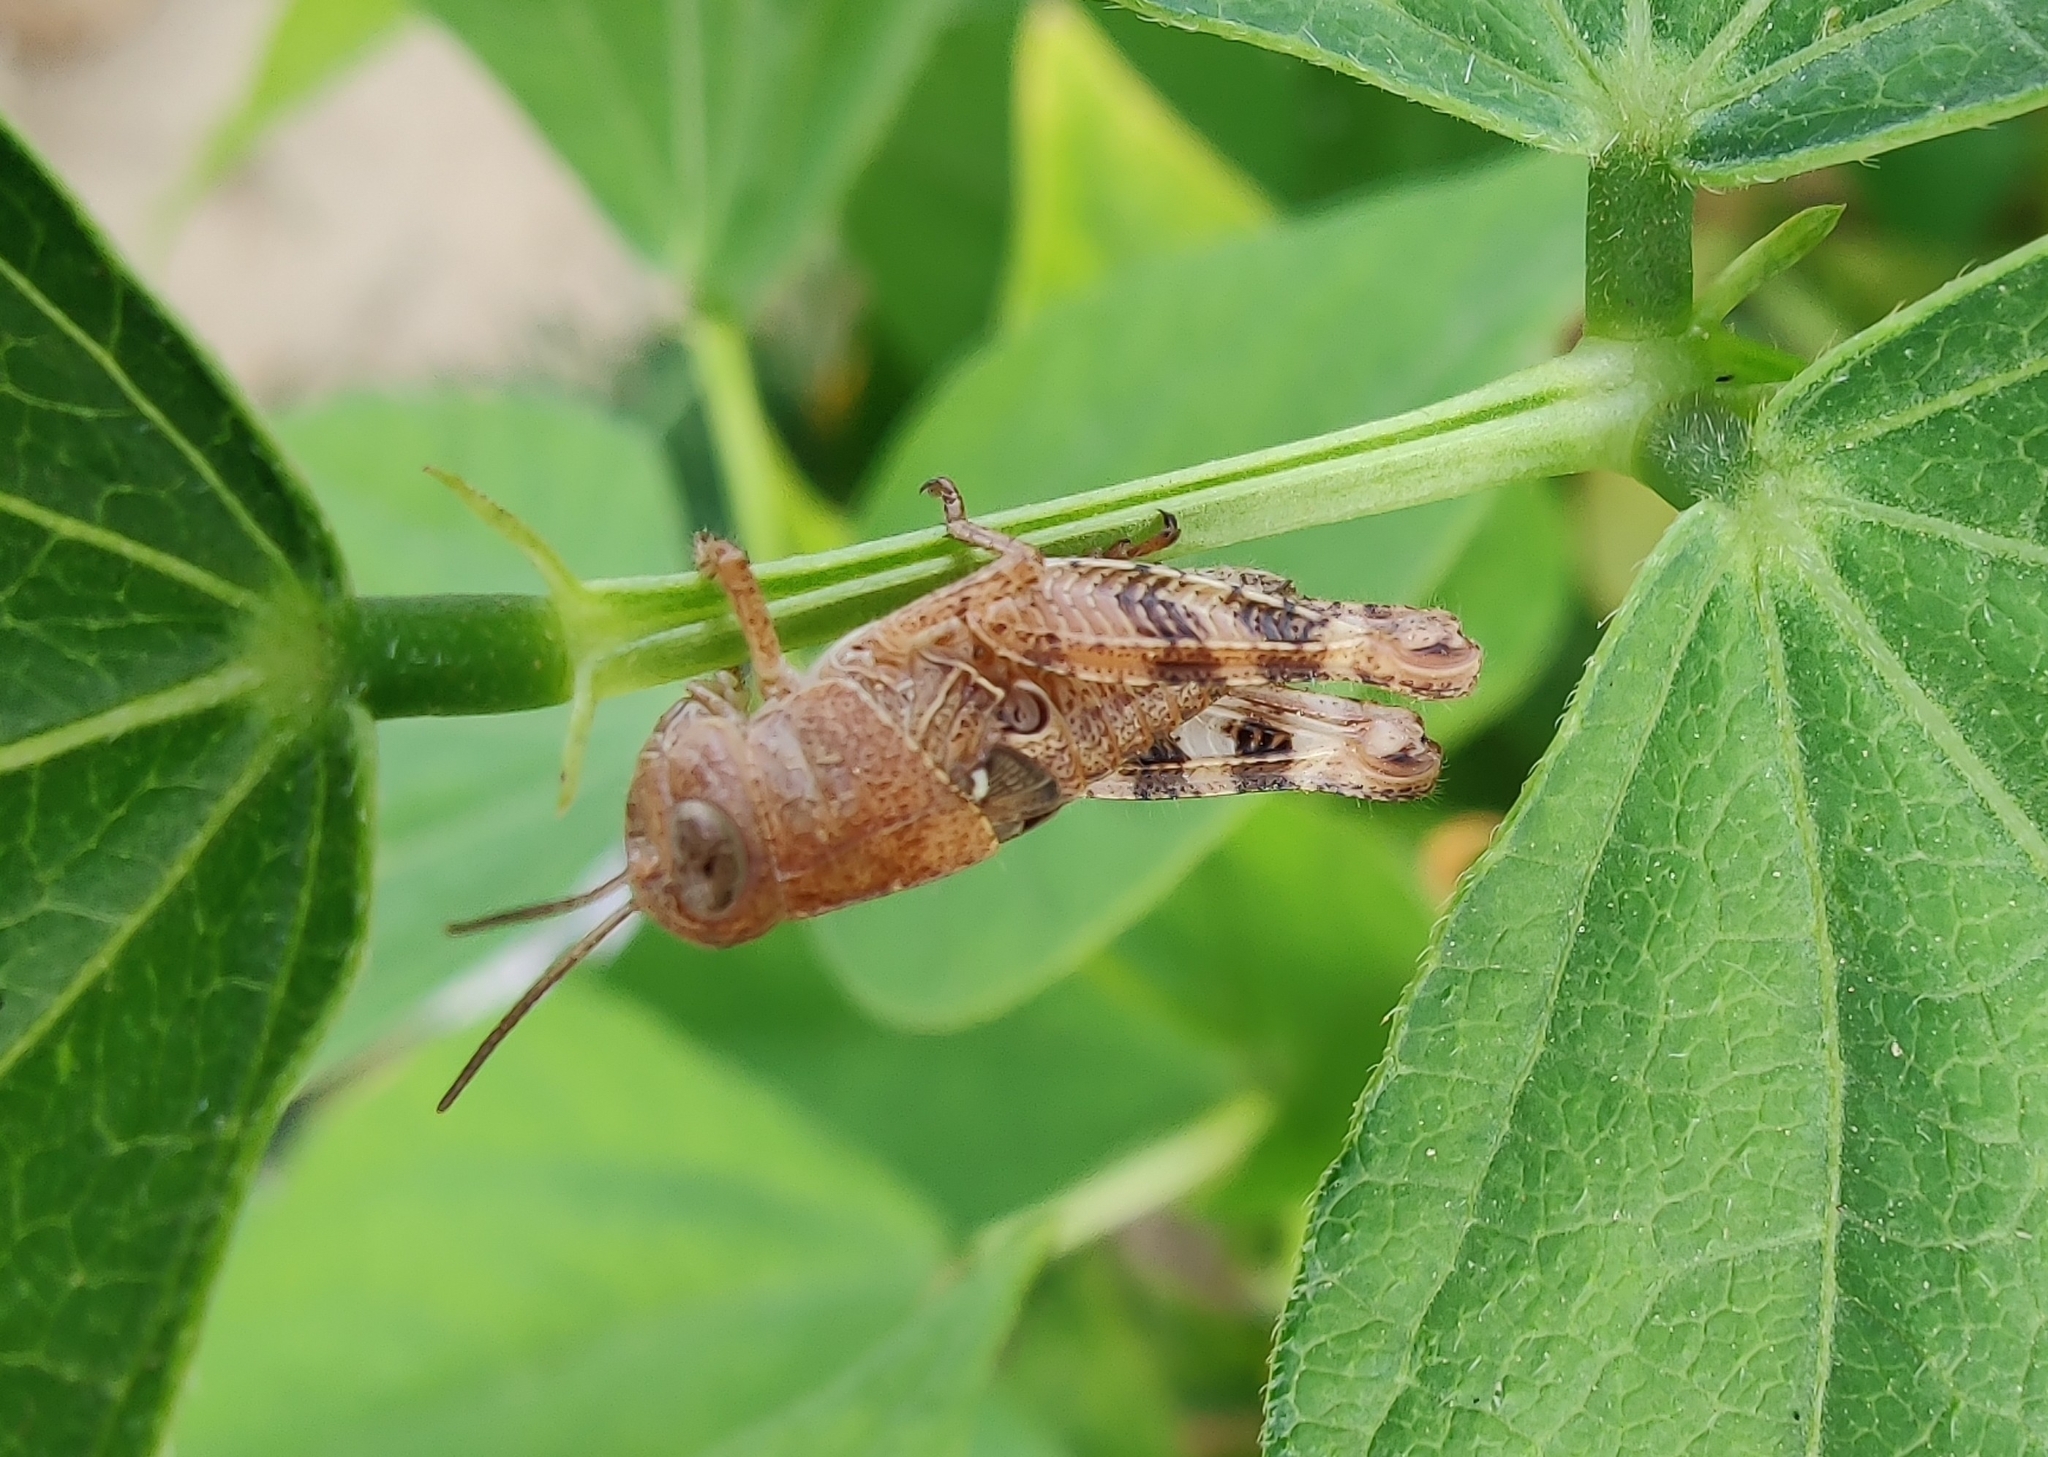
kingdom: Animalia
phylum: Arthropoda
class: Insecta
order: Orthoptera
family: Acrididae
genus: Calliptamus
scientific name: Calliptamus italicus
